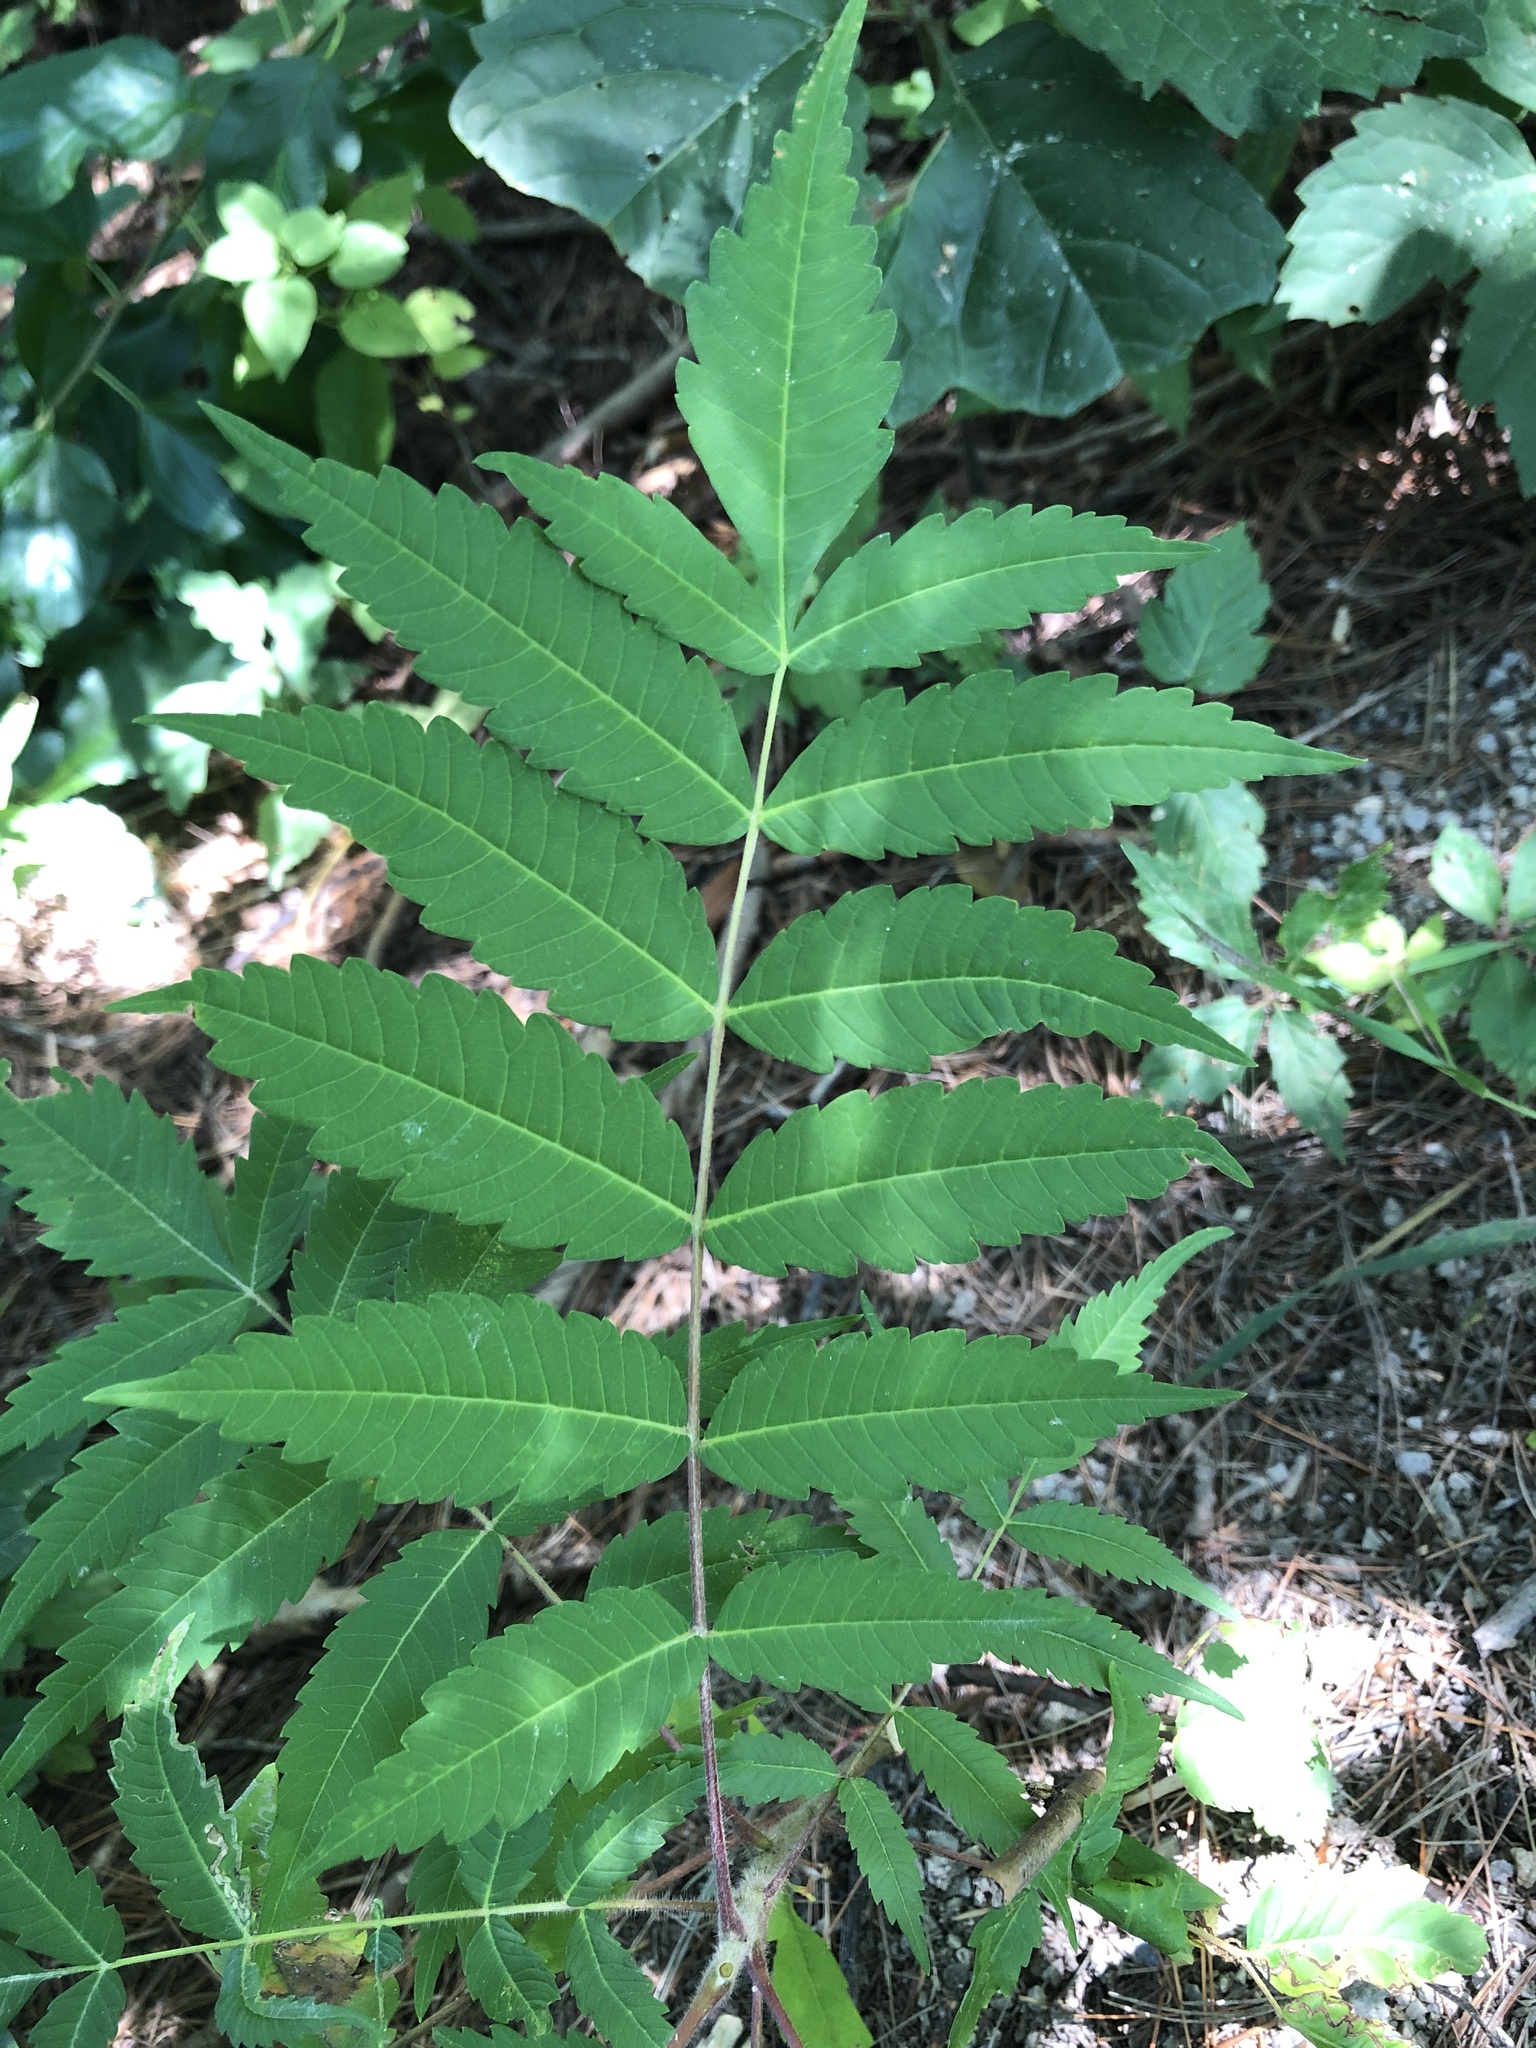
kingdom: Plantae
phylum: Tracheophyta
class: Magnoliopsida
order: Sapindales
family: Anacardiaceae
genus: Rhus
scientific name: Rhus typhina
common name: Staghorn sumac
